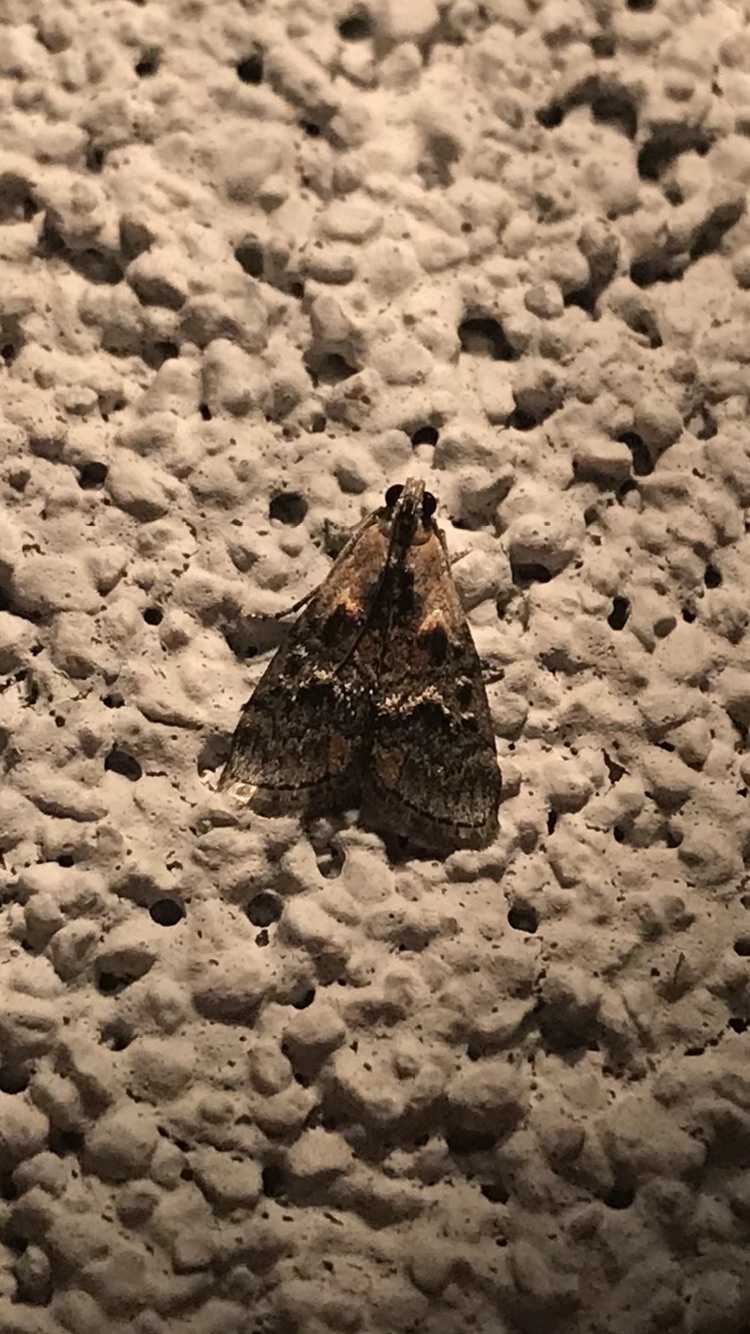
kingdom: Animalia
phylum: Arthropoda
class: Insecta
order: Lepidoptera
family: Pyralidae
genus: Pococera
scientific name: Pococera expandens
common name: Striped oak webworm moth
